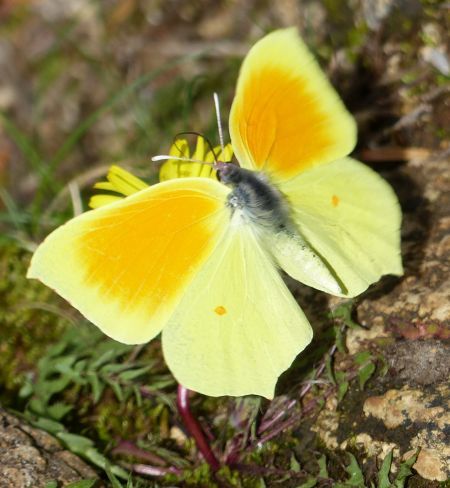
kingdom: Animalia
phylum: Arthropoda
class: Insecta
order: Lepidoptera
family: Pieridae
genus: Gonepteryx
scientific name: Gonepteryx cleopatra
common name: Cleopatra
